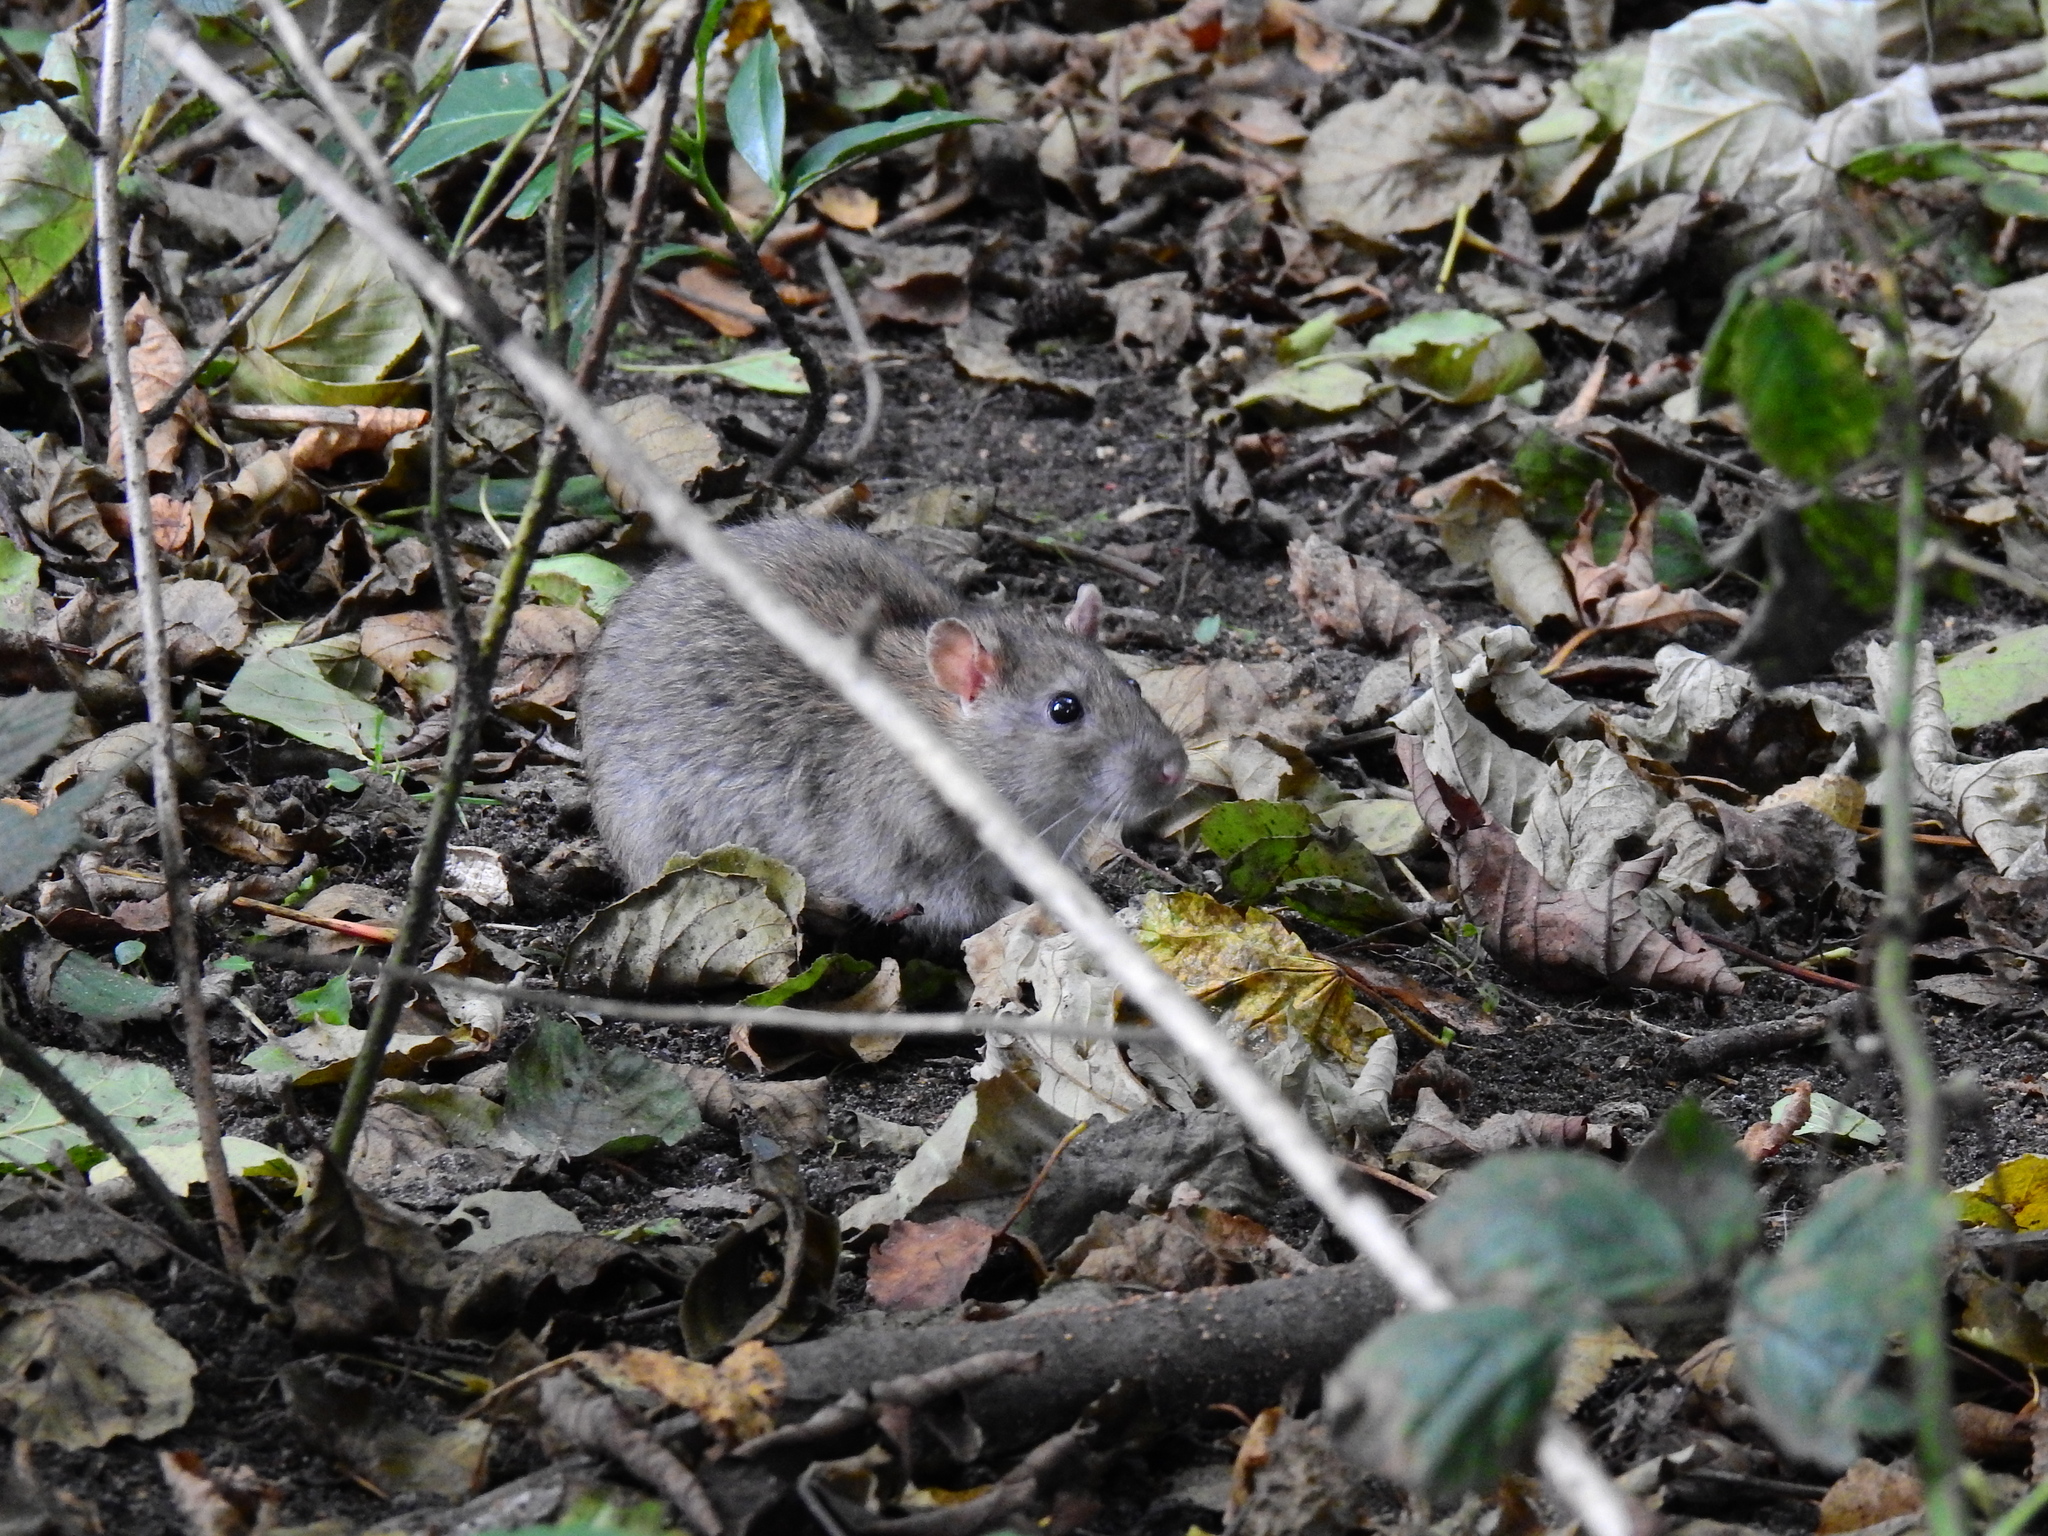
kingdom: Animalia
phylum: Chordata
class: Mammalia
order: Rodentia
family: Muridae
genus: Rattus
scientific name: Rattus norvegicus
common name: Brown rat
